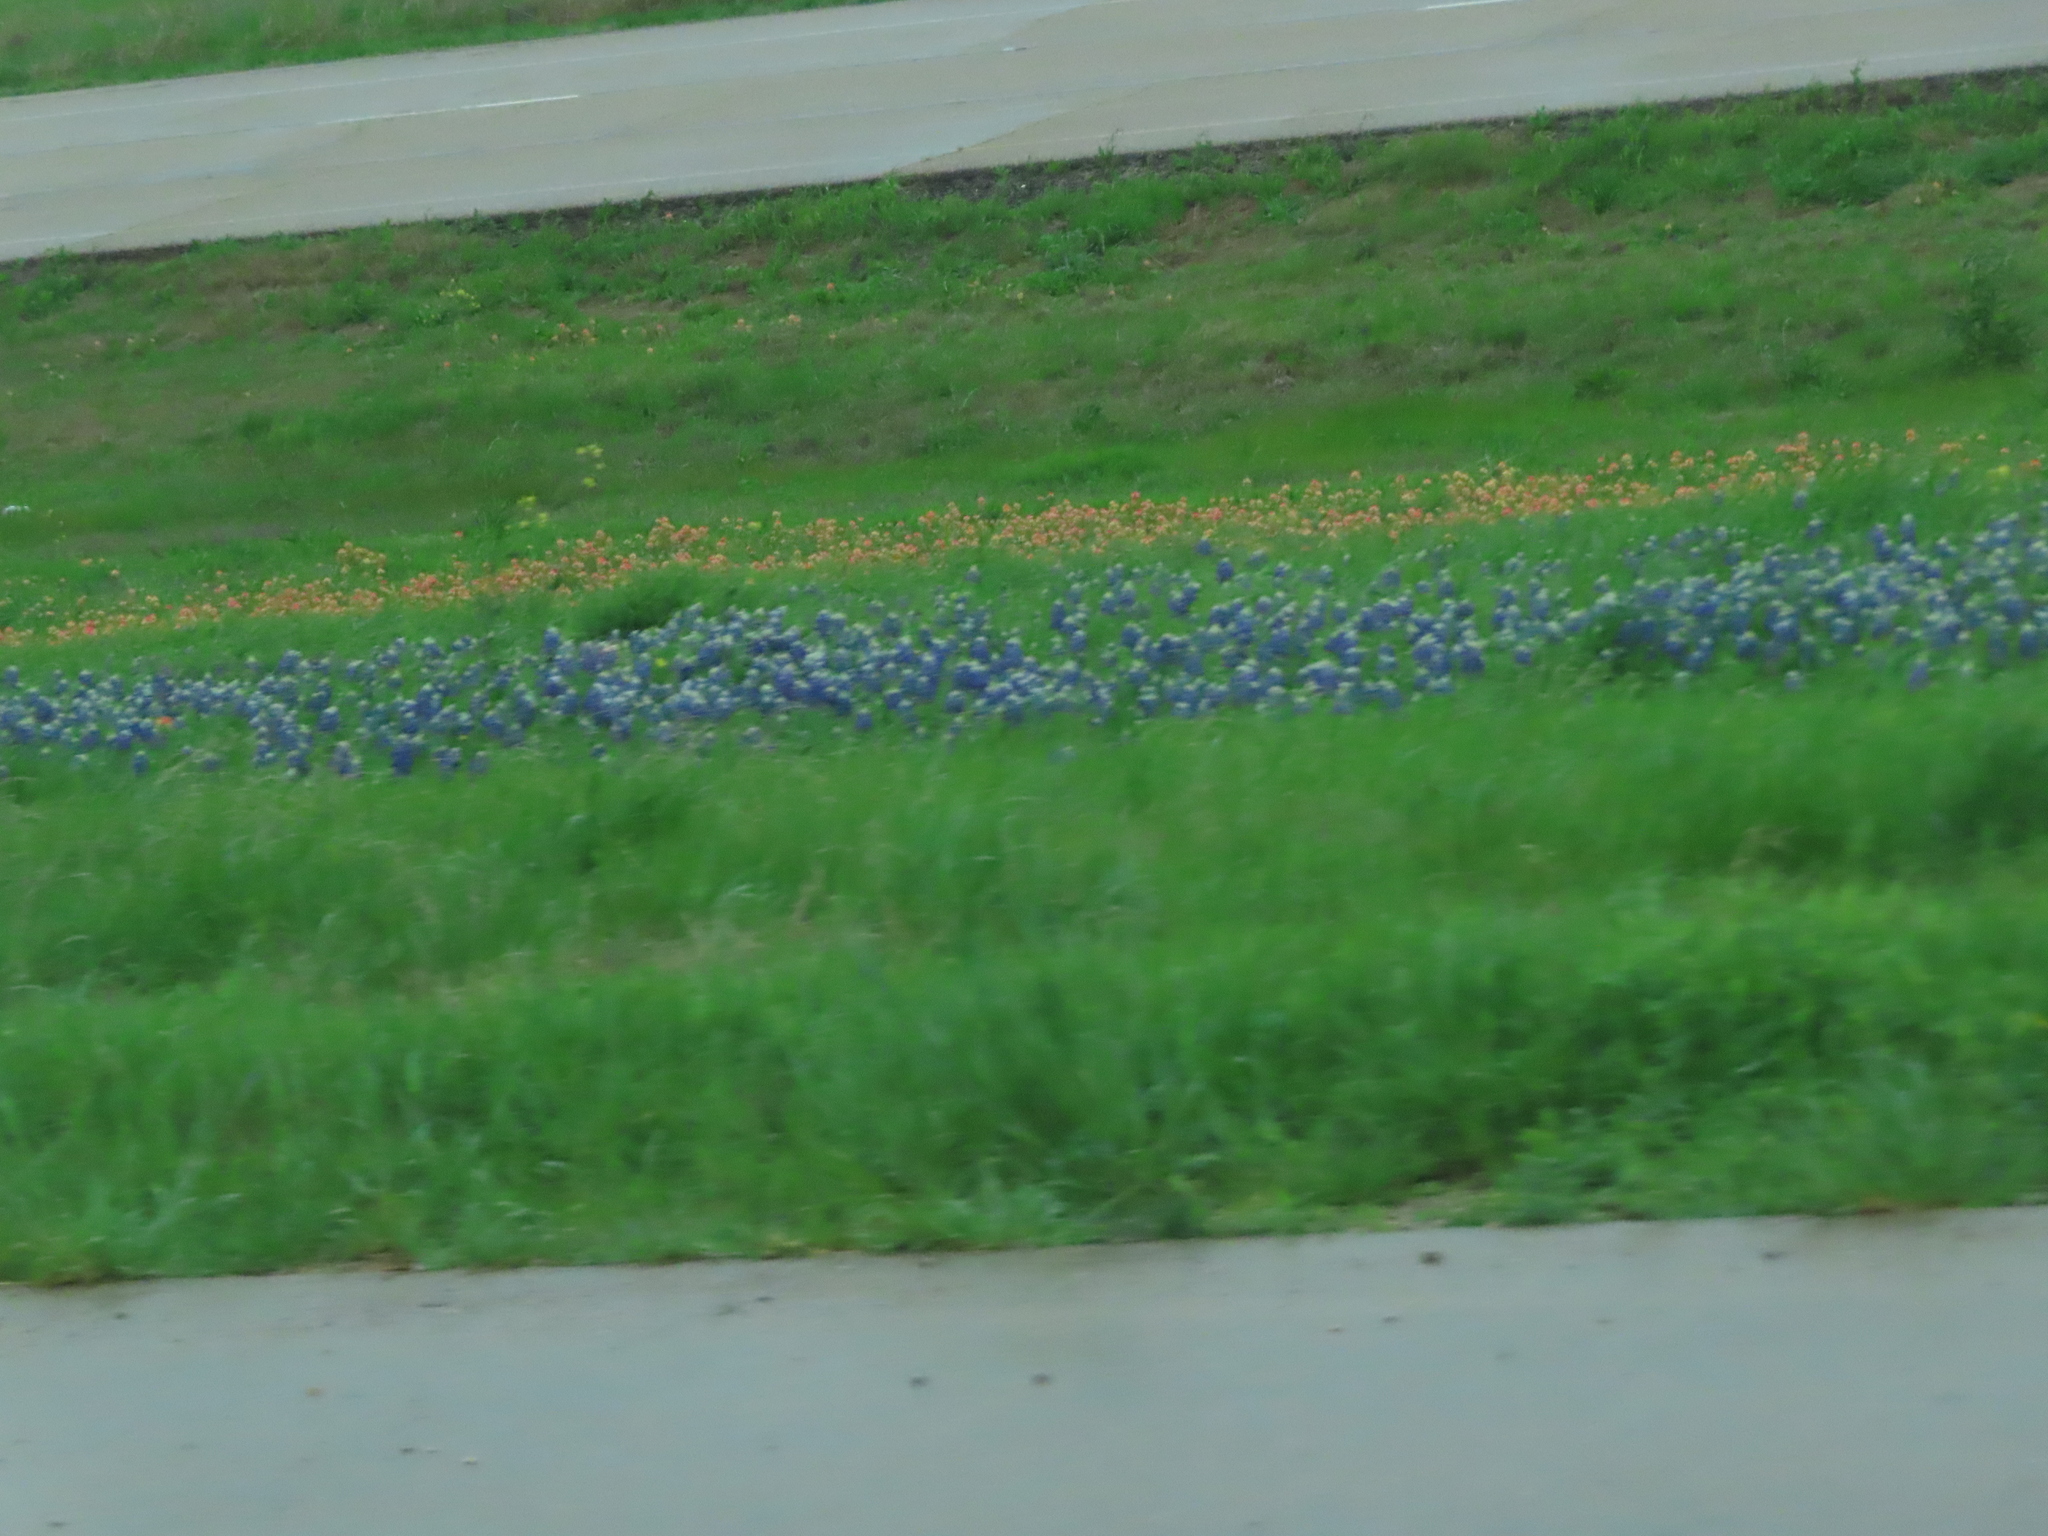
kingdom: Plantae
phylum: Tracheophyta
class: Magnoliopsida
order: Lamiales
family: Orobanchaceae
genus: Castilleja
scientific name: Castilleja indivisa
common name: Texas paintbrush
